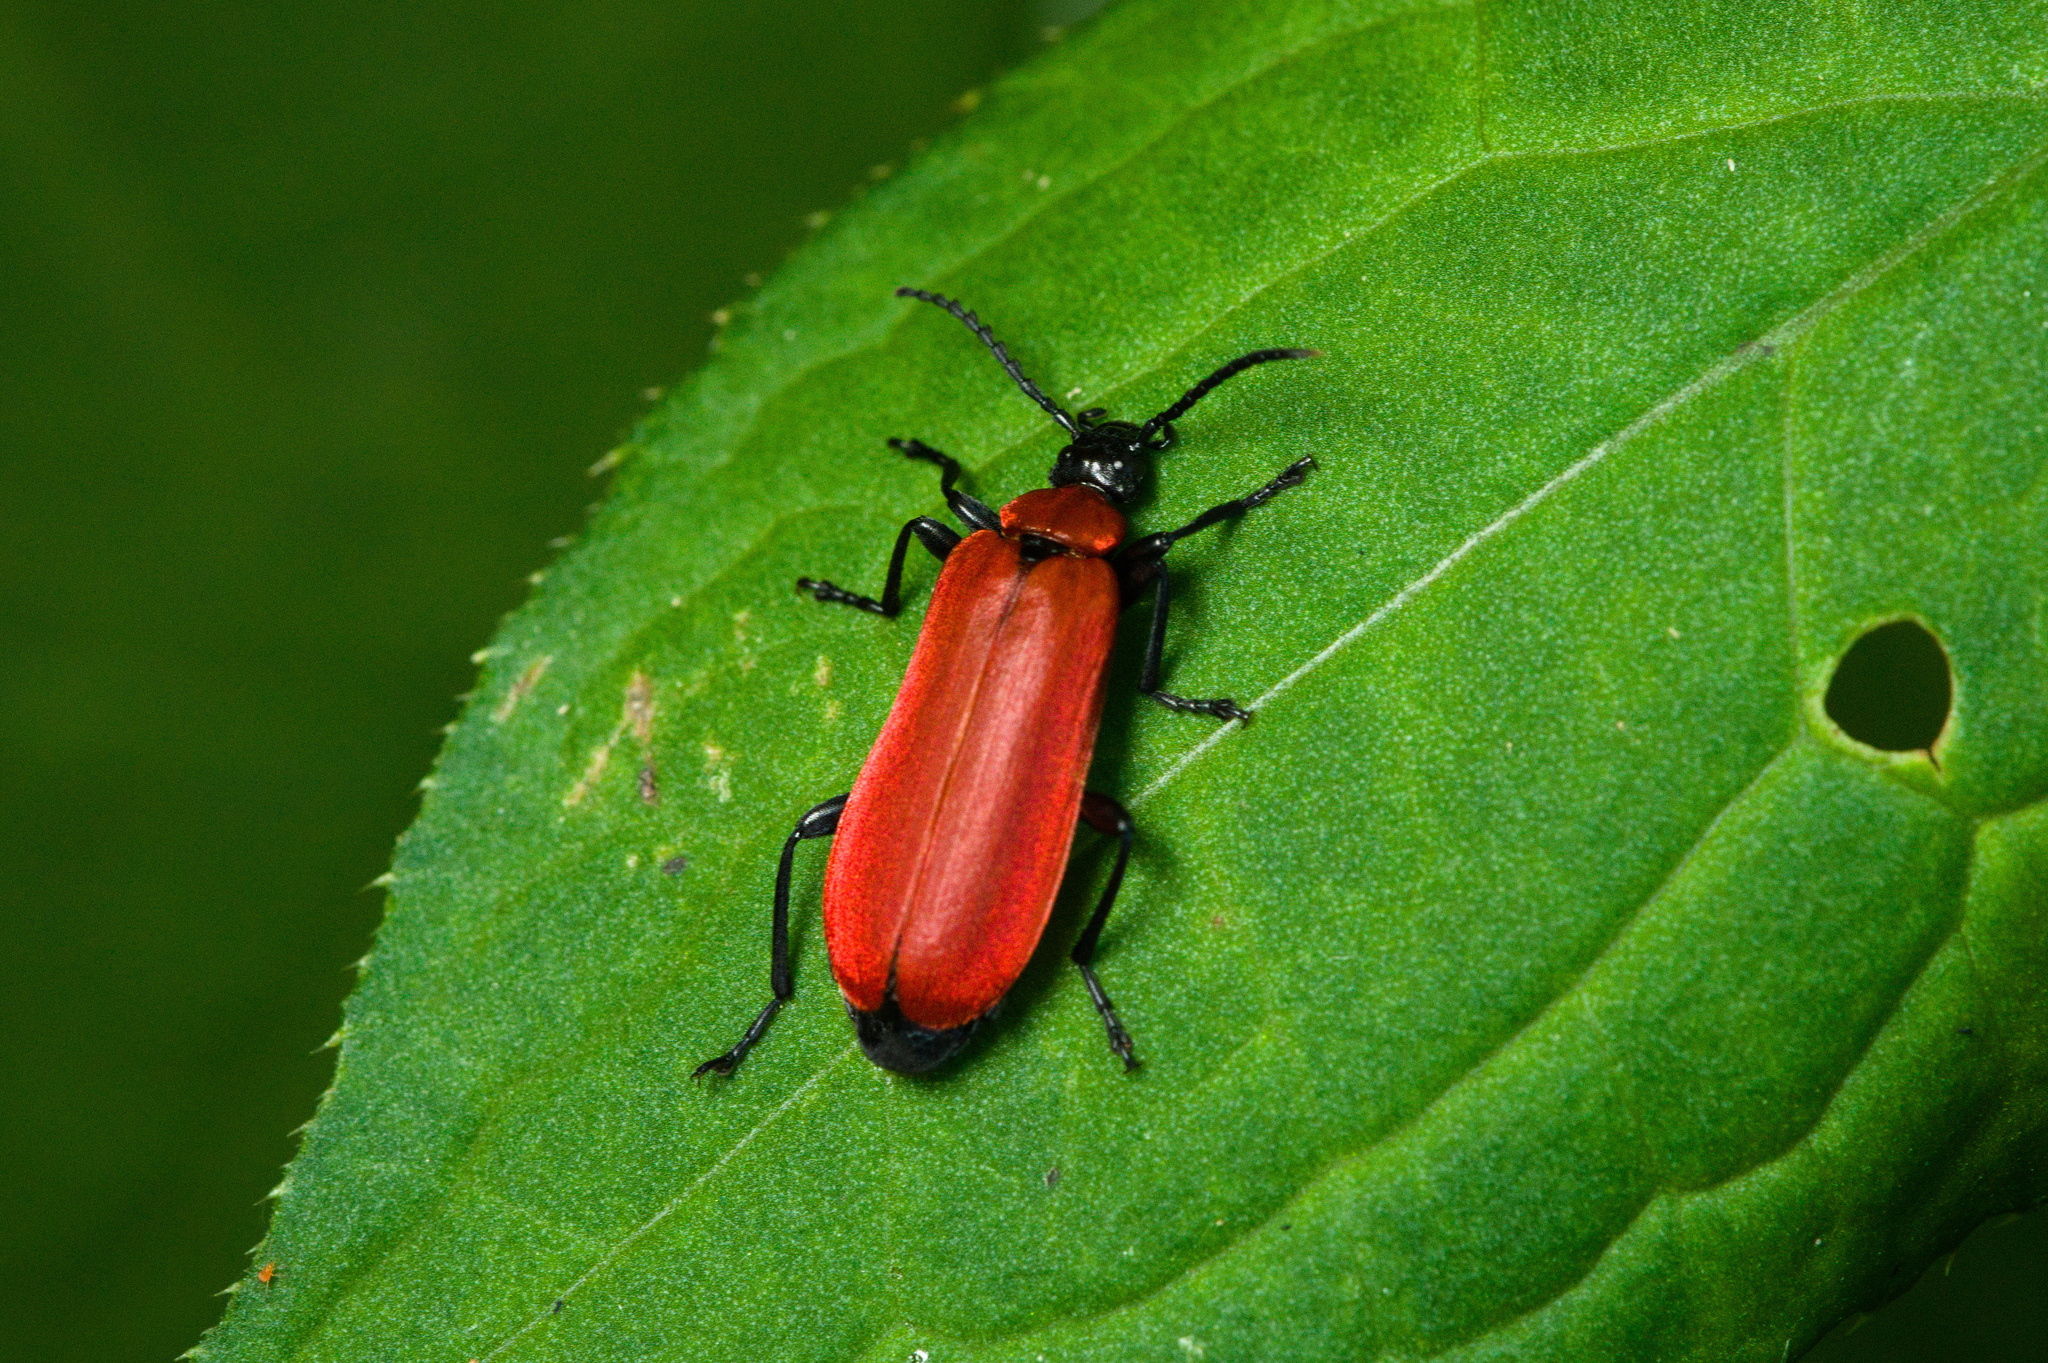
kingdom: Animalia
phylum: Arthropoda
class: Insecta
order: Coleoptera
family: Pyrochroidae
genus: Pyrochroa
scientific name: Pyrochroa coccinea
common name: Black-headed cardinal beetle
